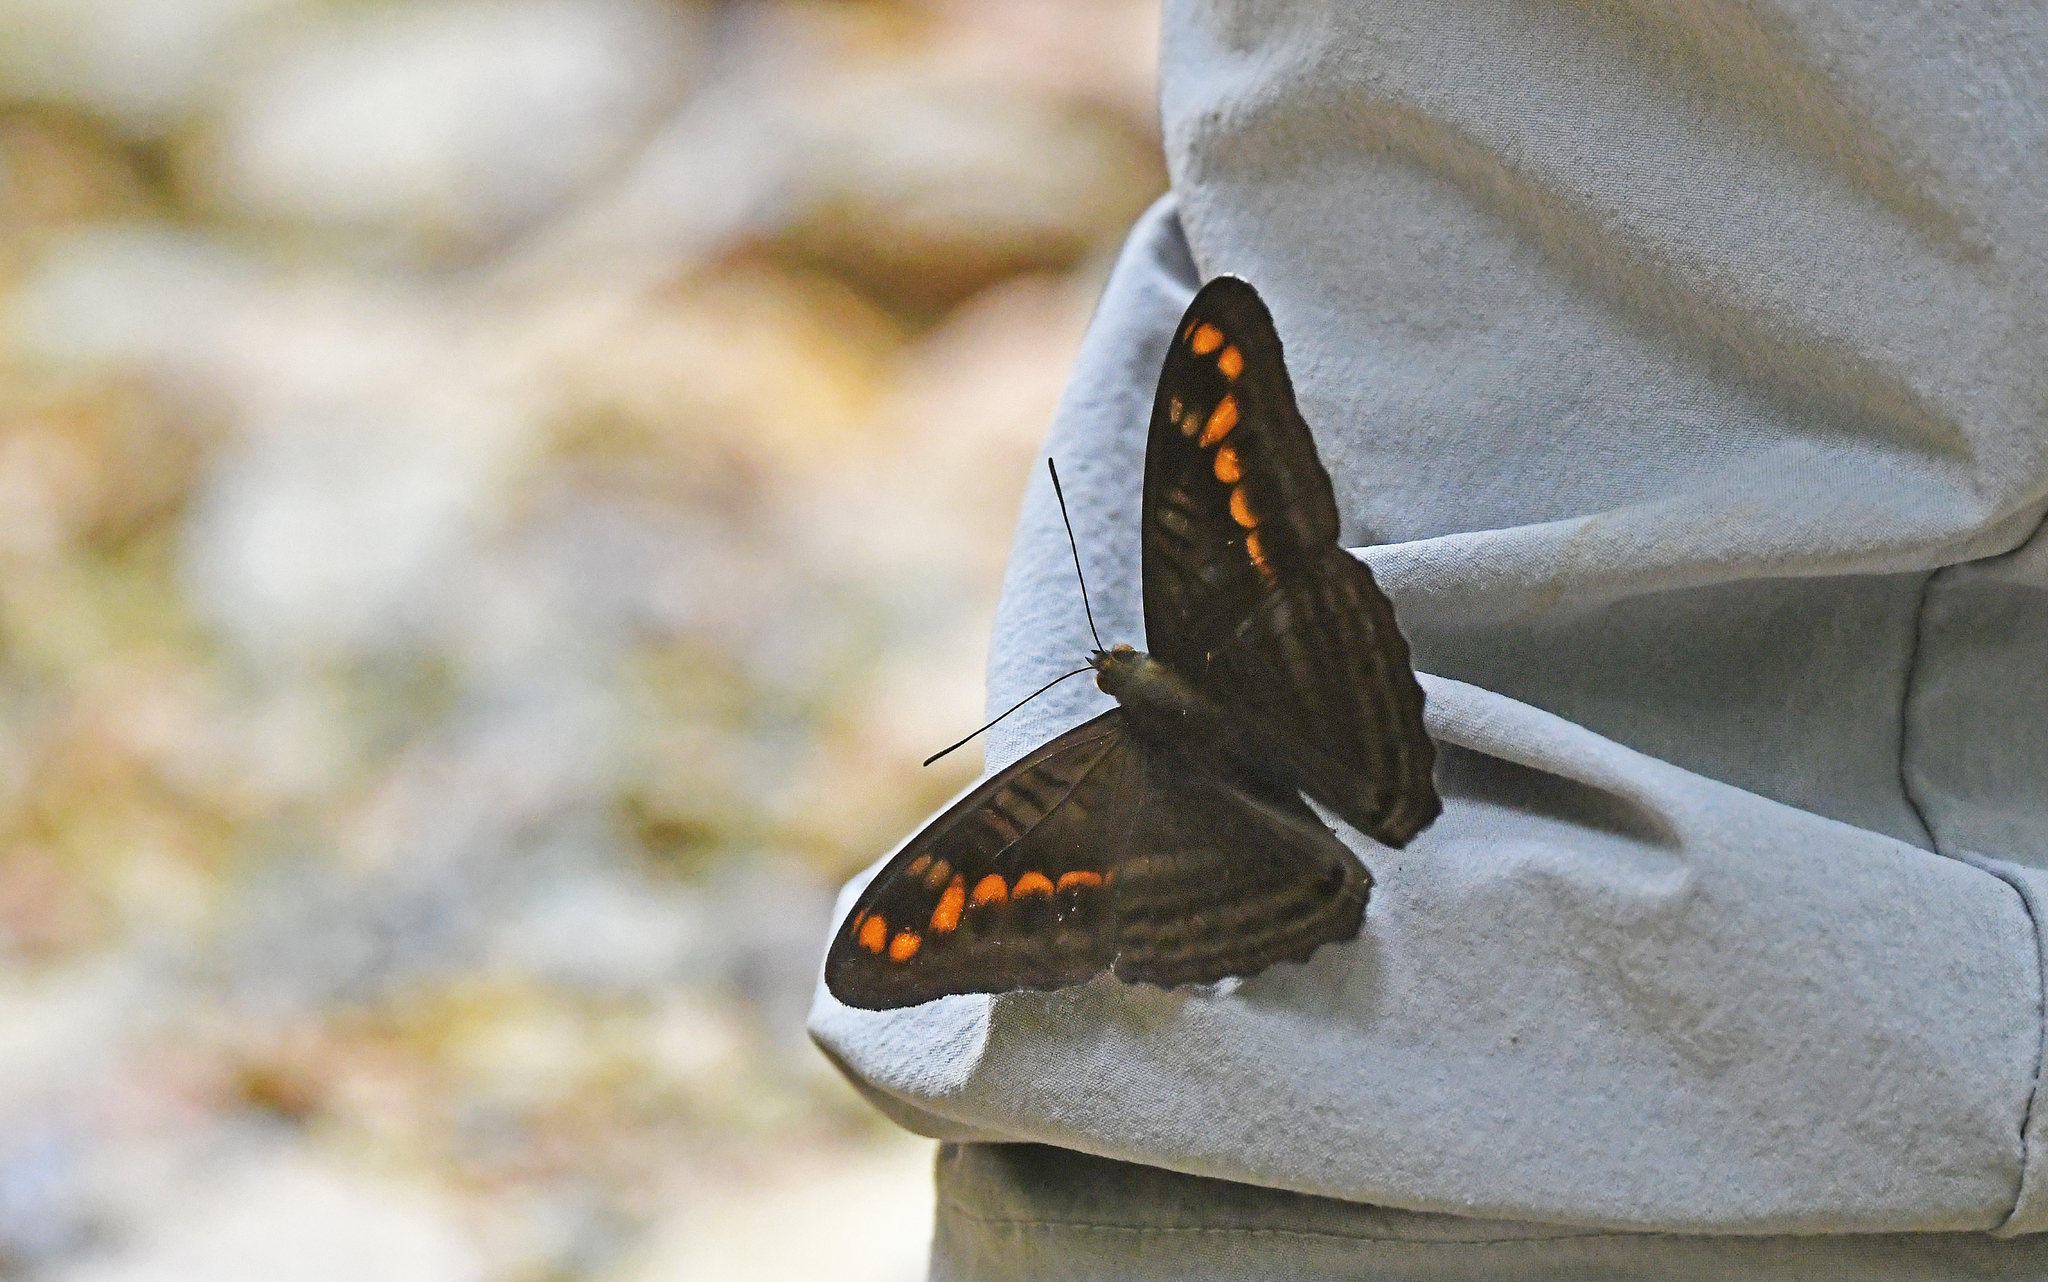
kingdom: Animalia
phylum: Arthropoda
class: Insecta
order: Lepidoptera
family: Nymphalidae
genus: Limenitis
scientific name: Limenitis levona
